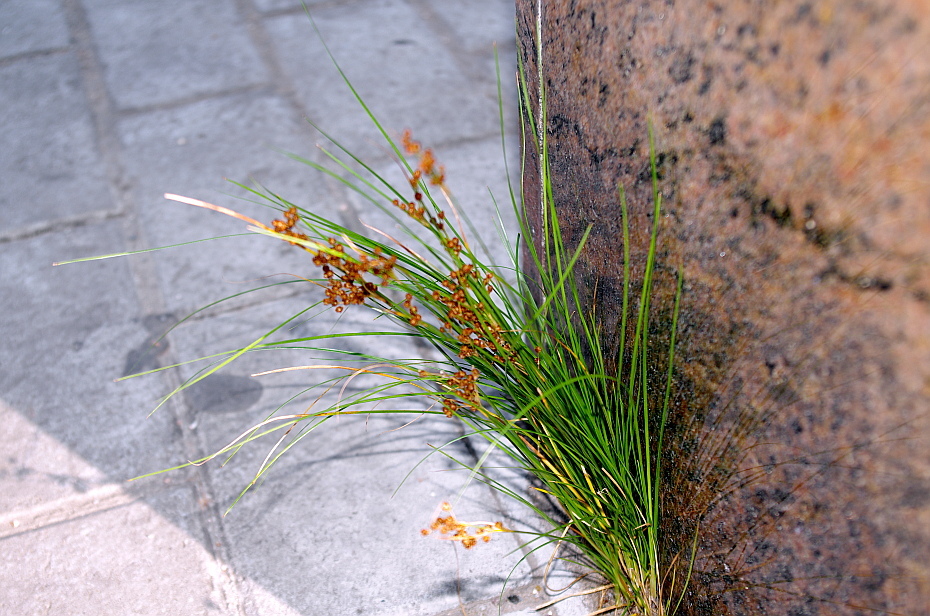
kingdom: Plantae
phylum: Tracheophyta
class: Liliopsida
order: Poales
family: Juncaceae
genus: Juncus
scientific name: Juncus compressus
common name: Round-fruited rush
